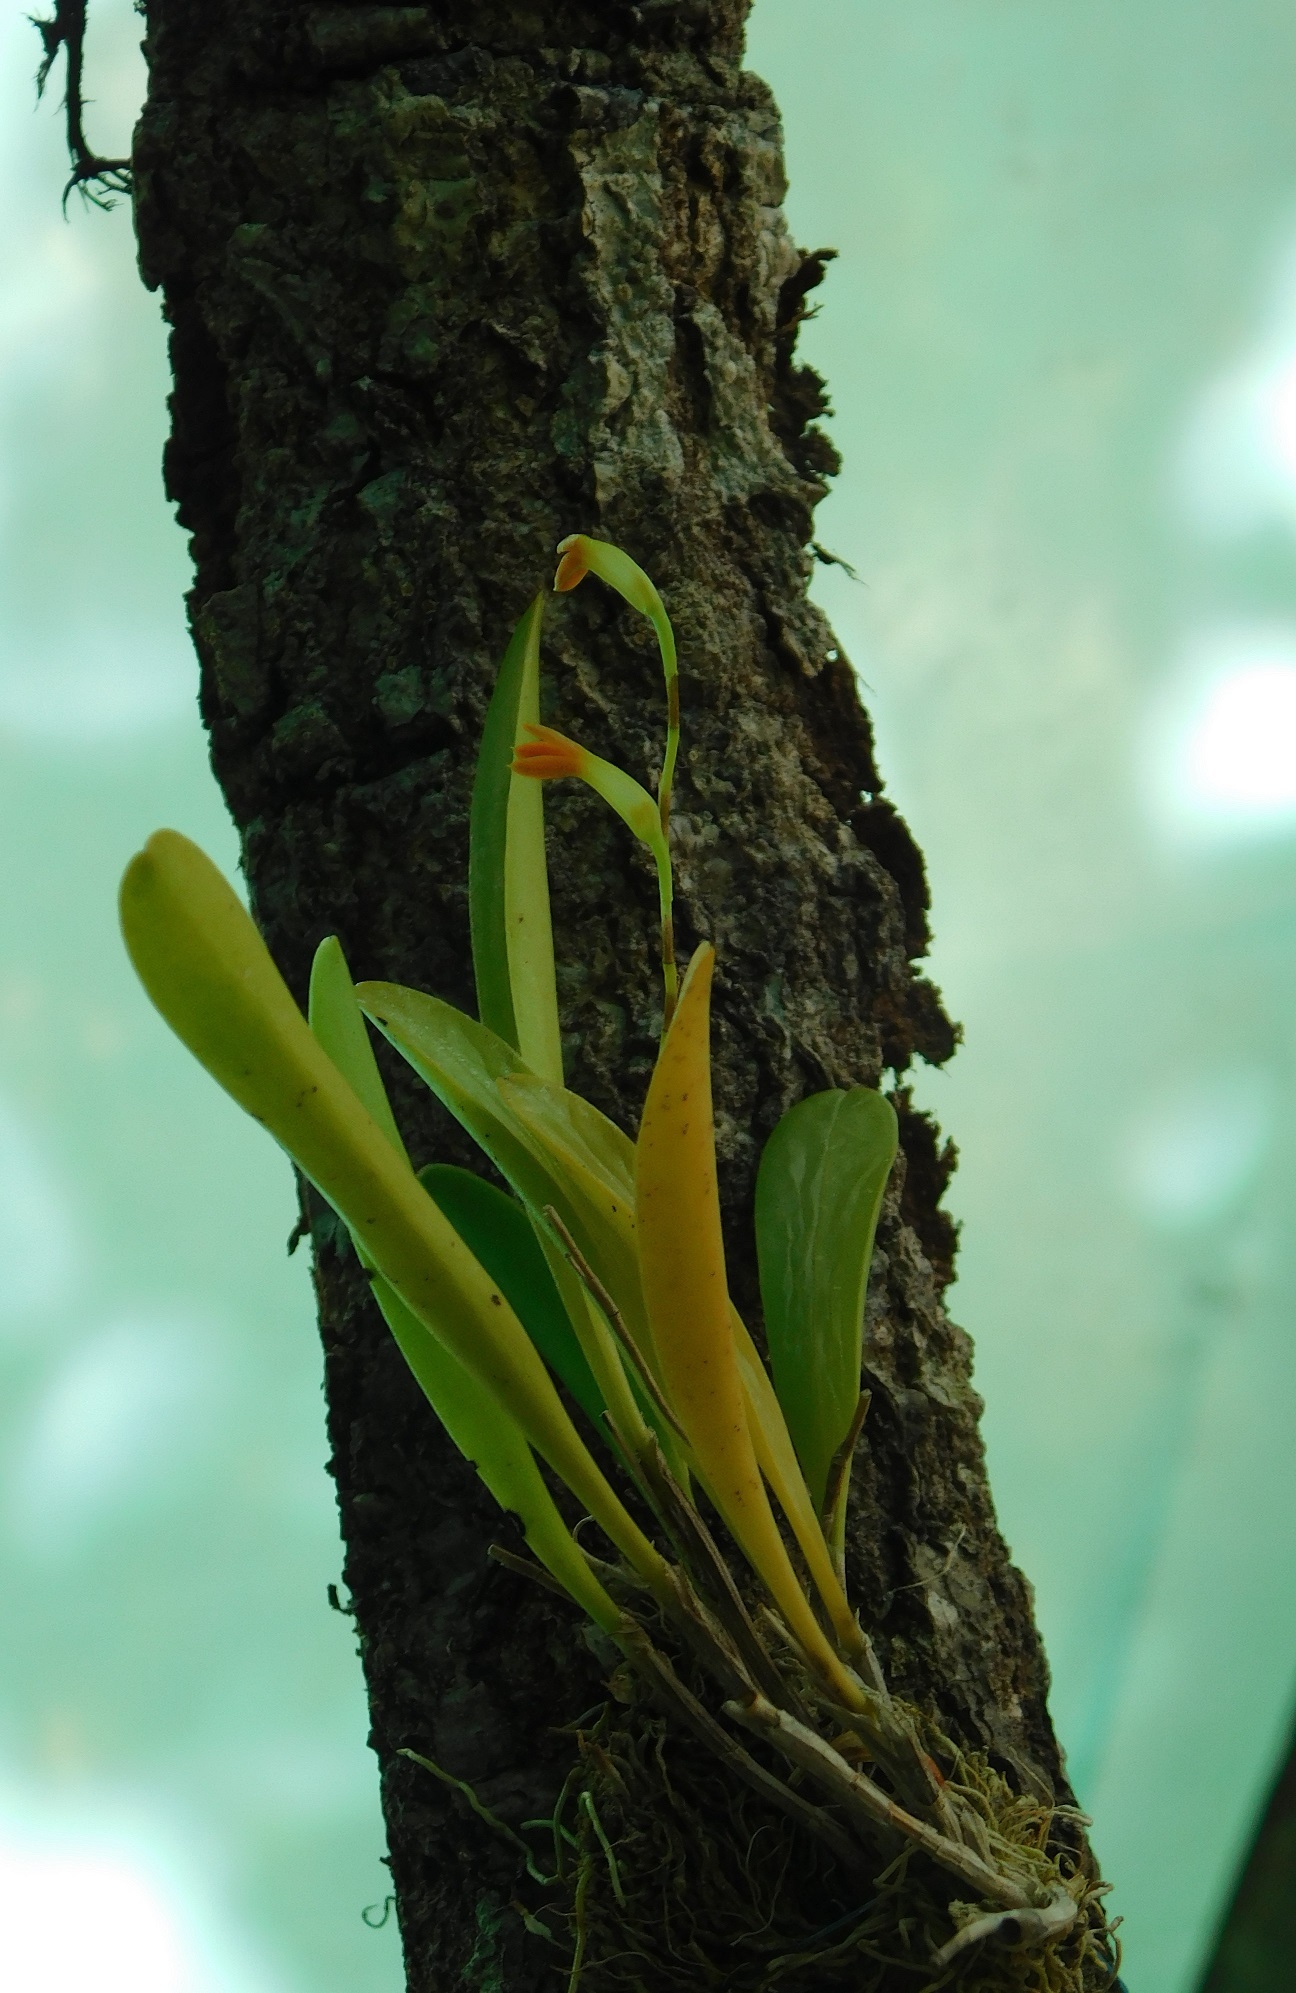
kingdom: Plantae
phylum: Tracheophyta
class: Liliopsida
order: Asparagales
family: Orchidaceae
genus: Stelis
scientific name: Stelis emarginata
